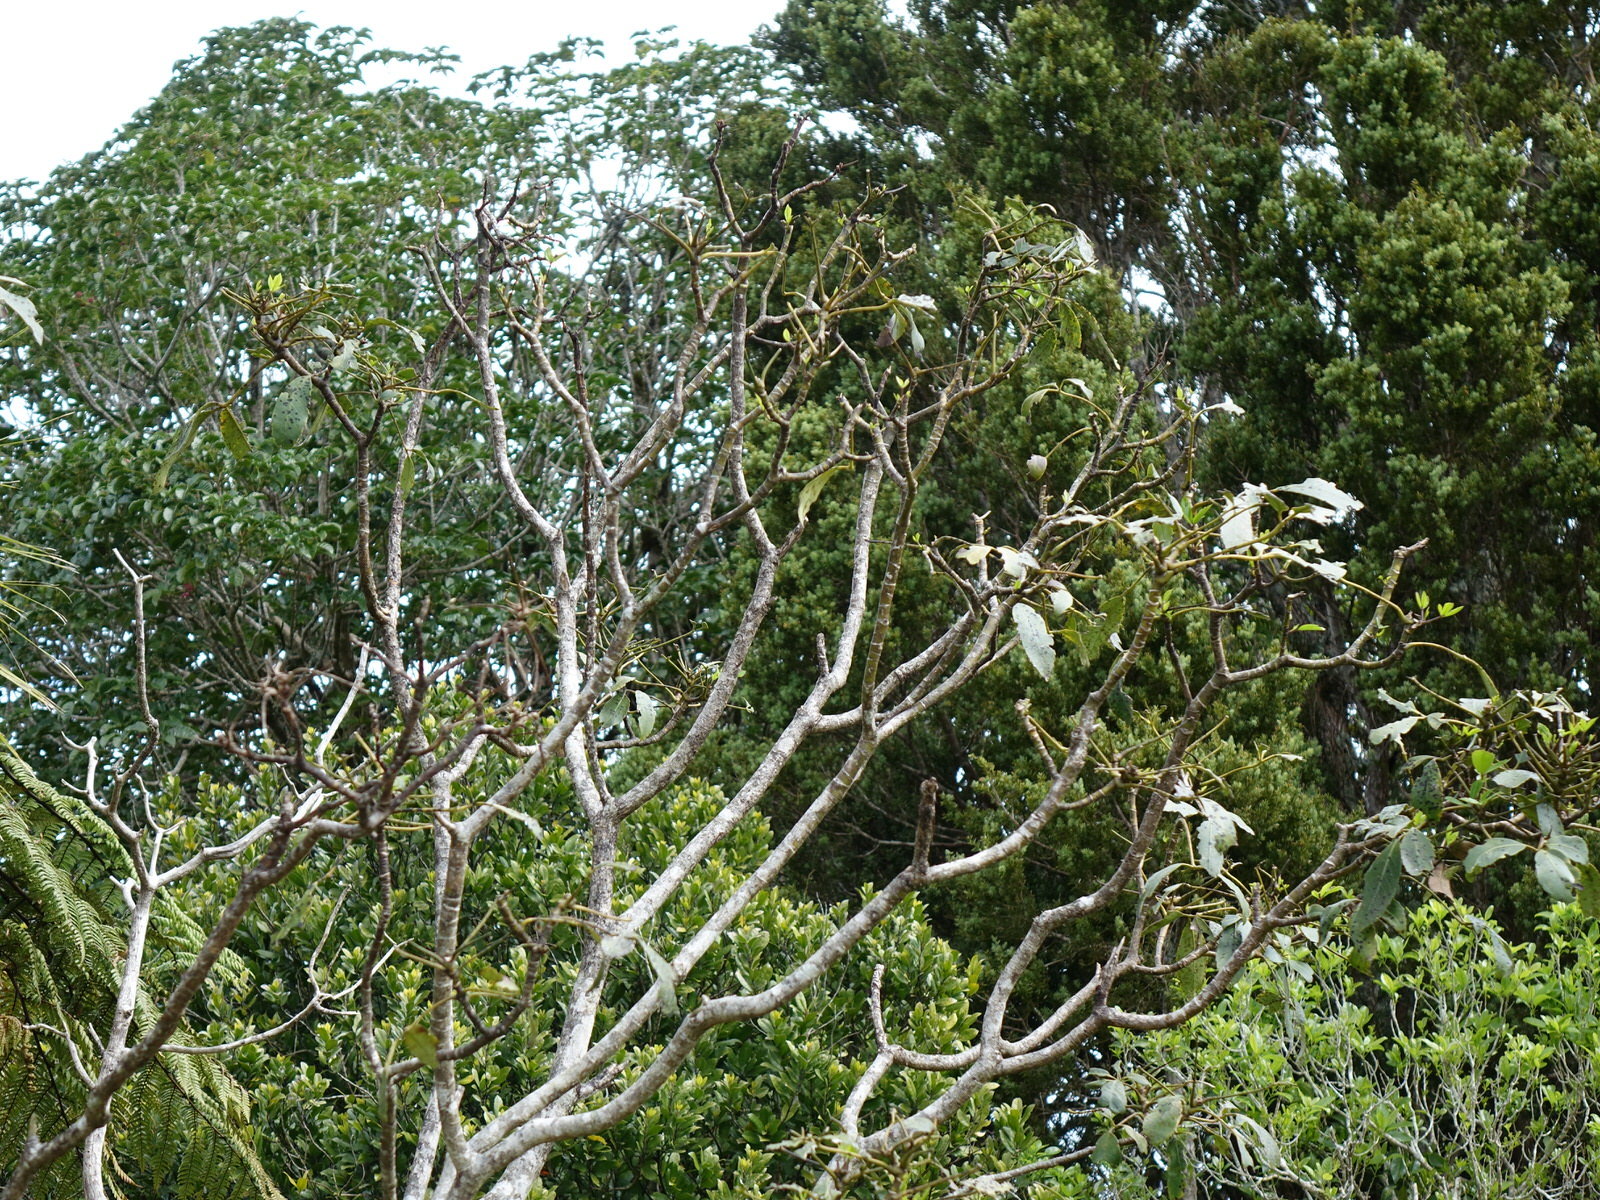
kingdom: Animalia
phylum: Chordata
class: Mammalia
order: Diprotodontia
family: Phalangeridae
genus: Trichosurus
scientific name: Trichosurus vulpecula
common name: Common brushtail
